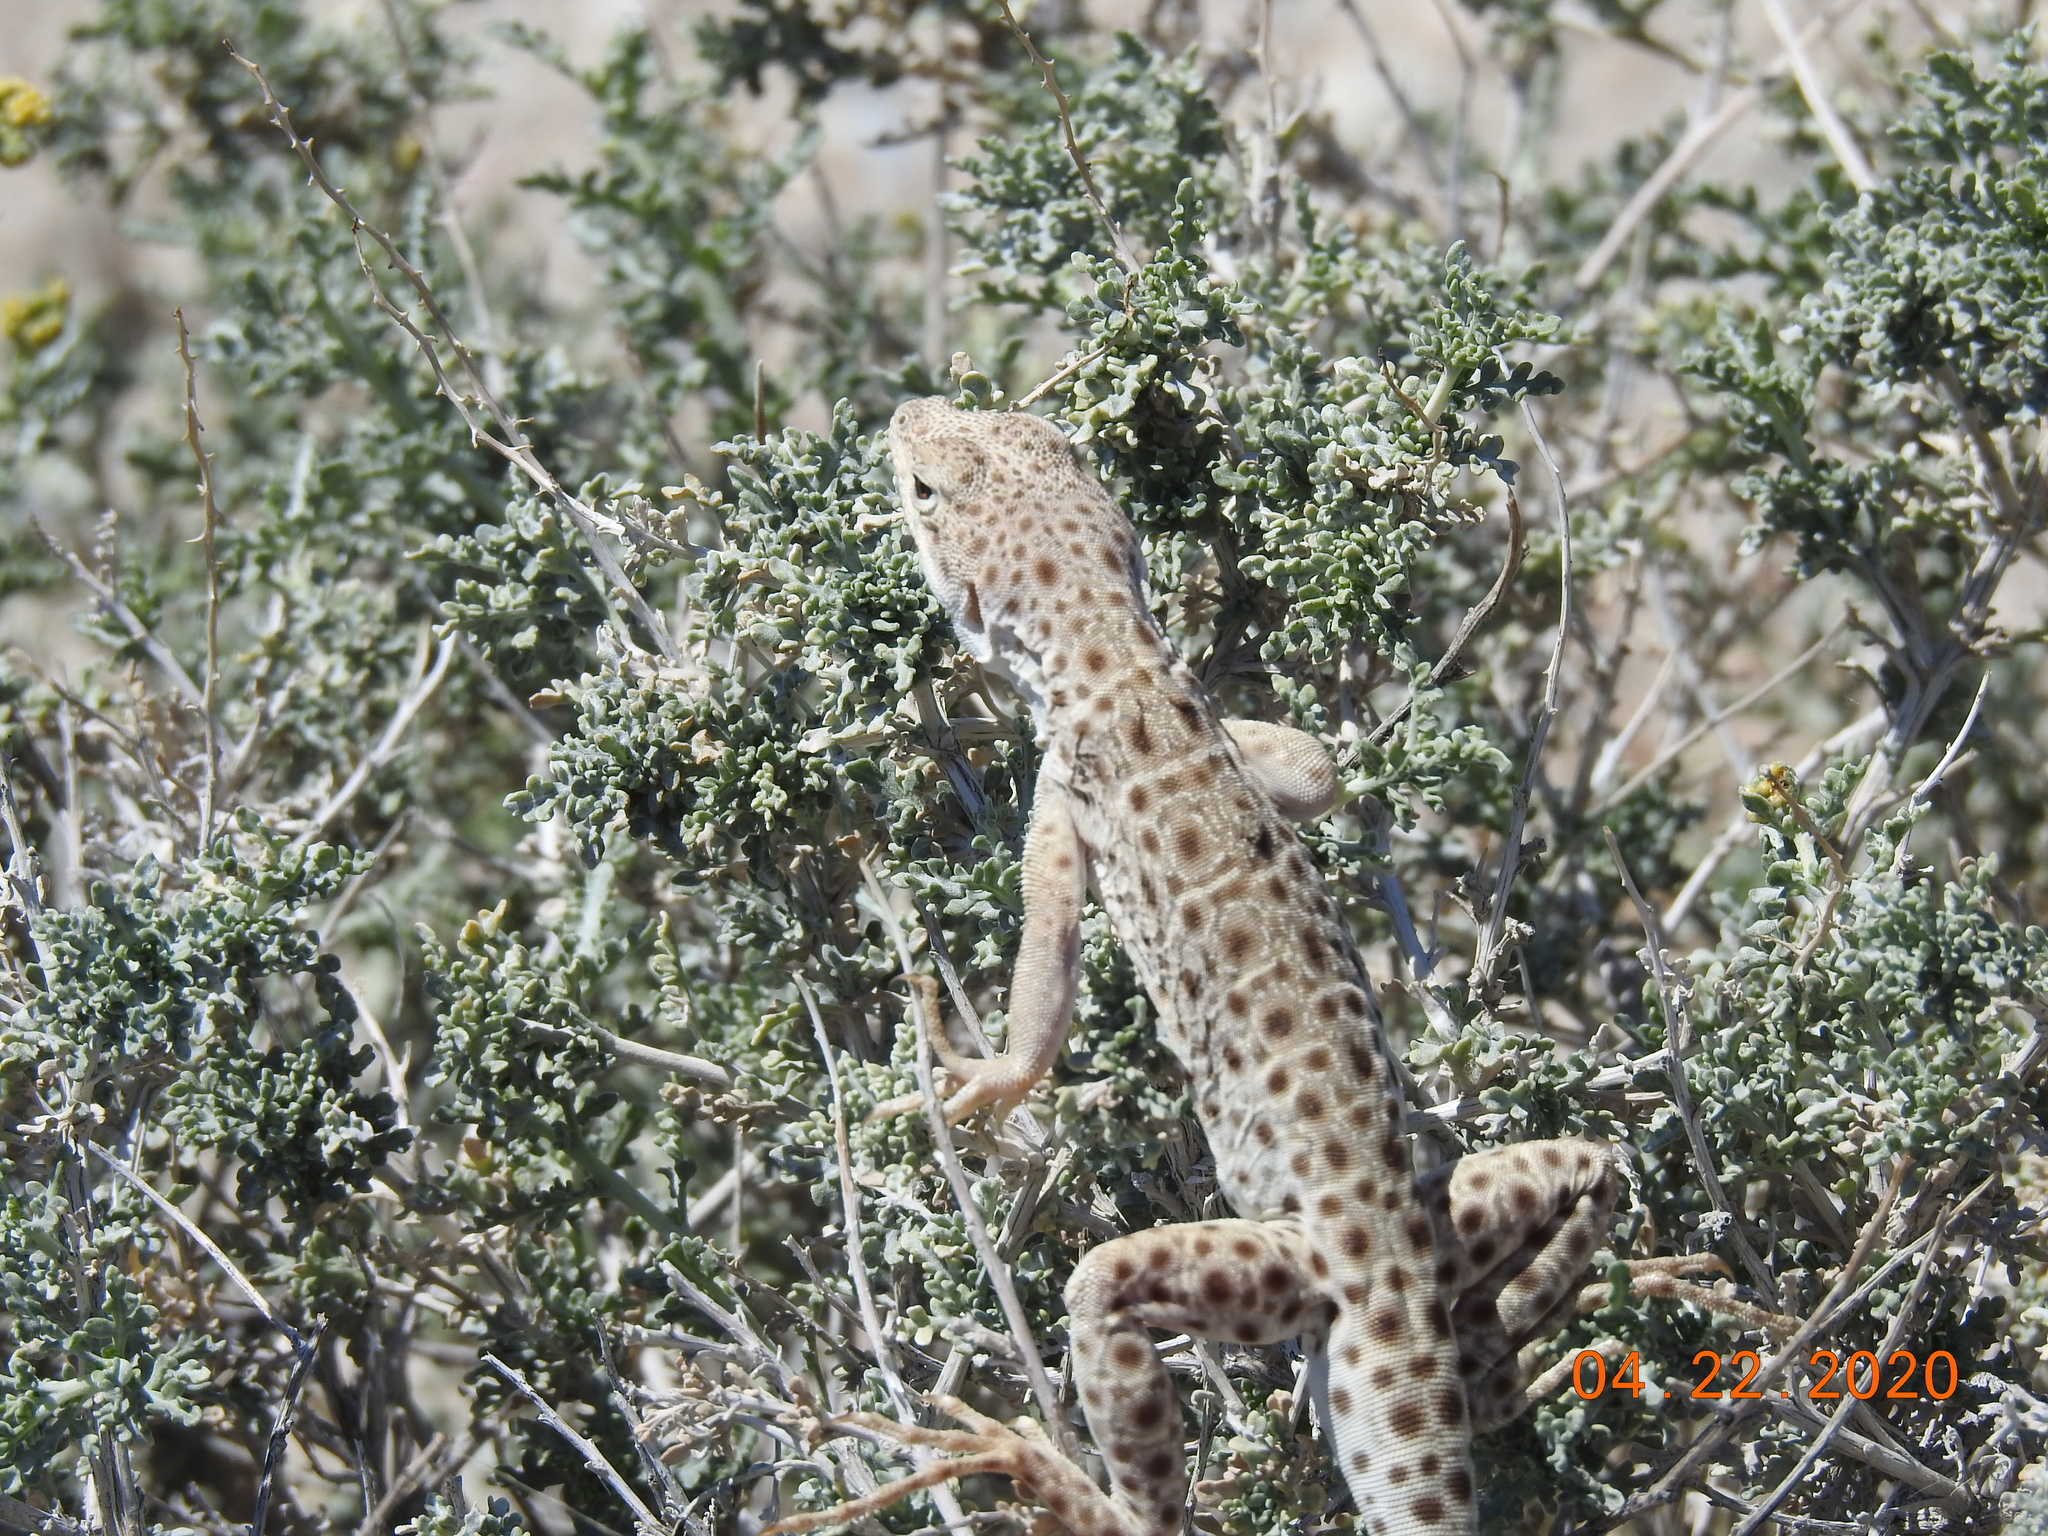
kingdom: Animalia
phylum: Chordata
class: Squamata
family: Crotaphytidae
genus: Gambelia
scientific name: Gambelia wislizenii
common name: Longnose leopard lizard
